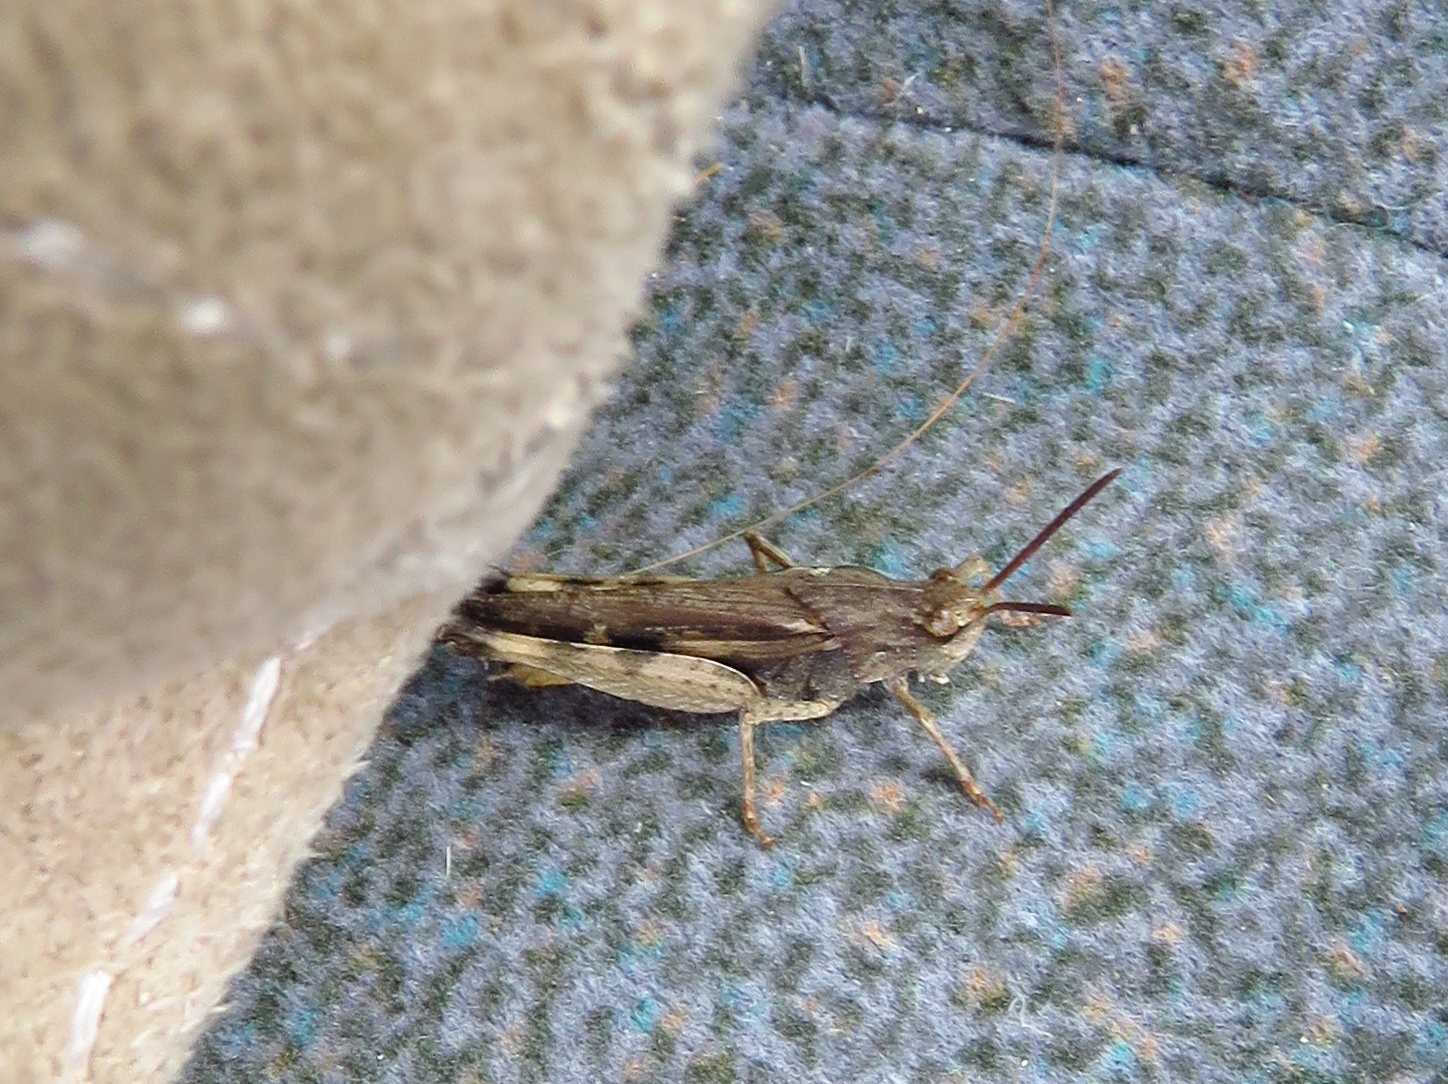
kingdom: Animalia
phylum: Arthropoda
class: Insecta
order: Orthoptera
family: Acrididae
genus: Chortophaga
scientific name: Chortophaga viridifasciata
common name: Green-striped grasshopper
